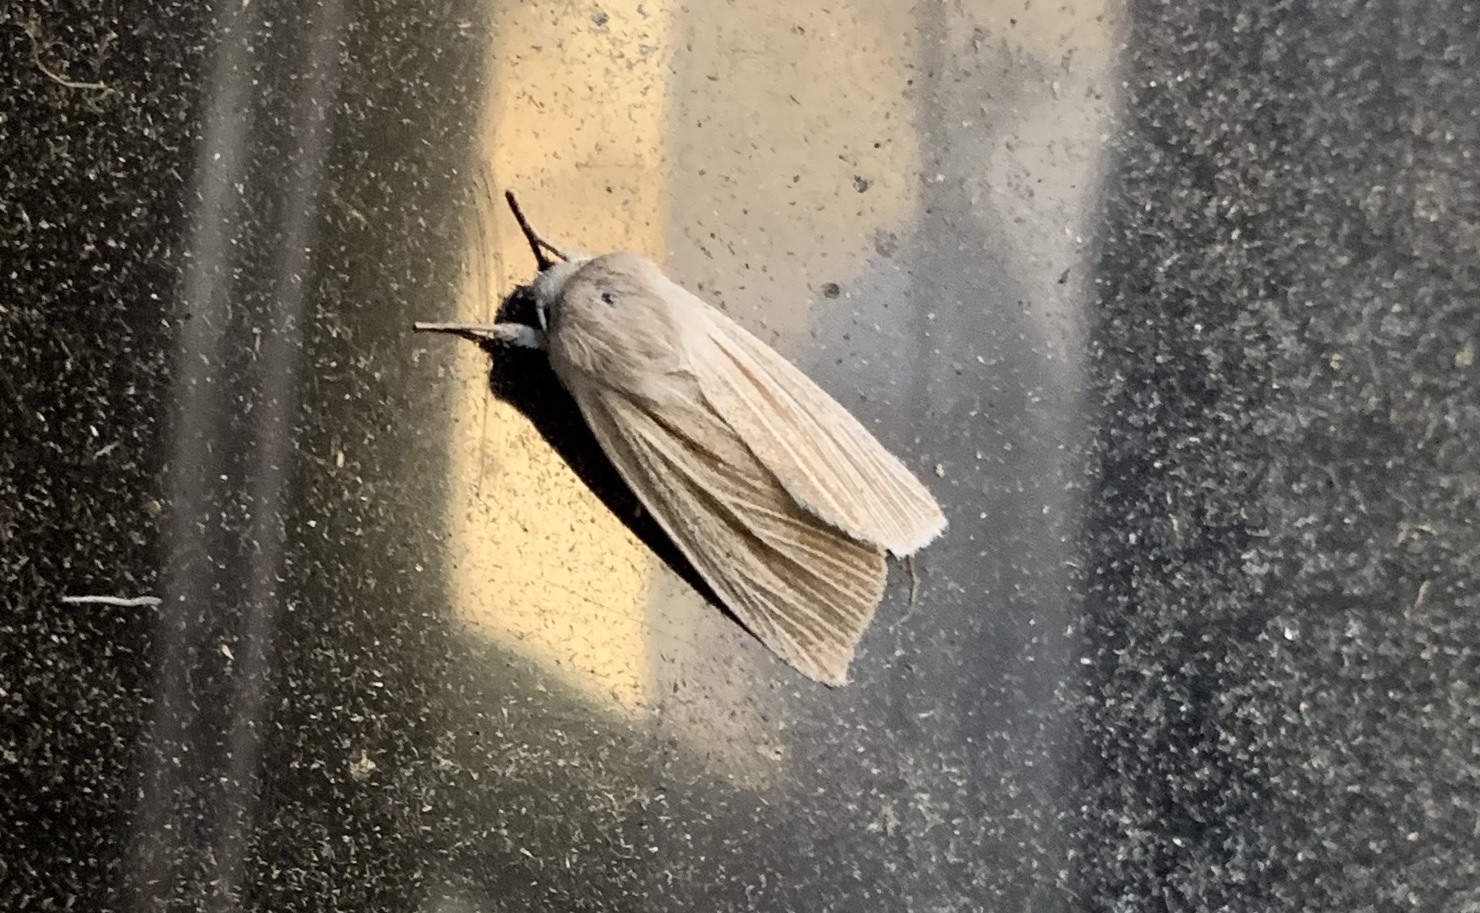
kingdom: Animalia
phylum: Arthropoda
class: Insecta
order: Lepidoptera
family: Noctuidae
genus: Acronicta
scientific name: Acronicta insularis
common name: Henry's marsh moth
